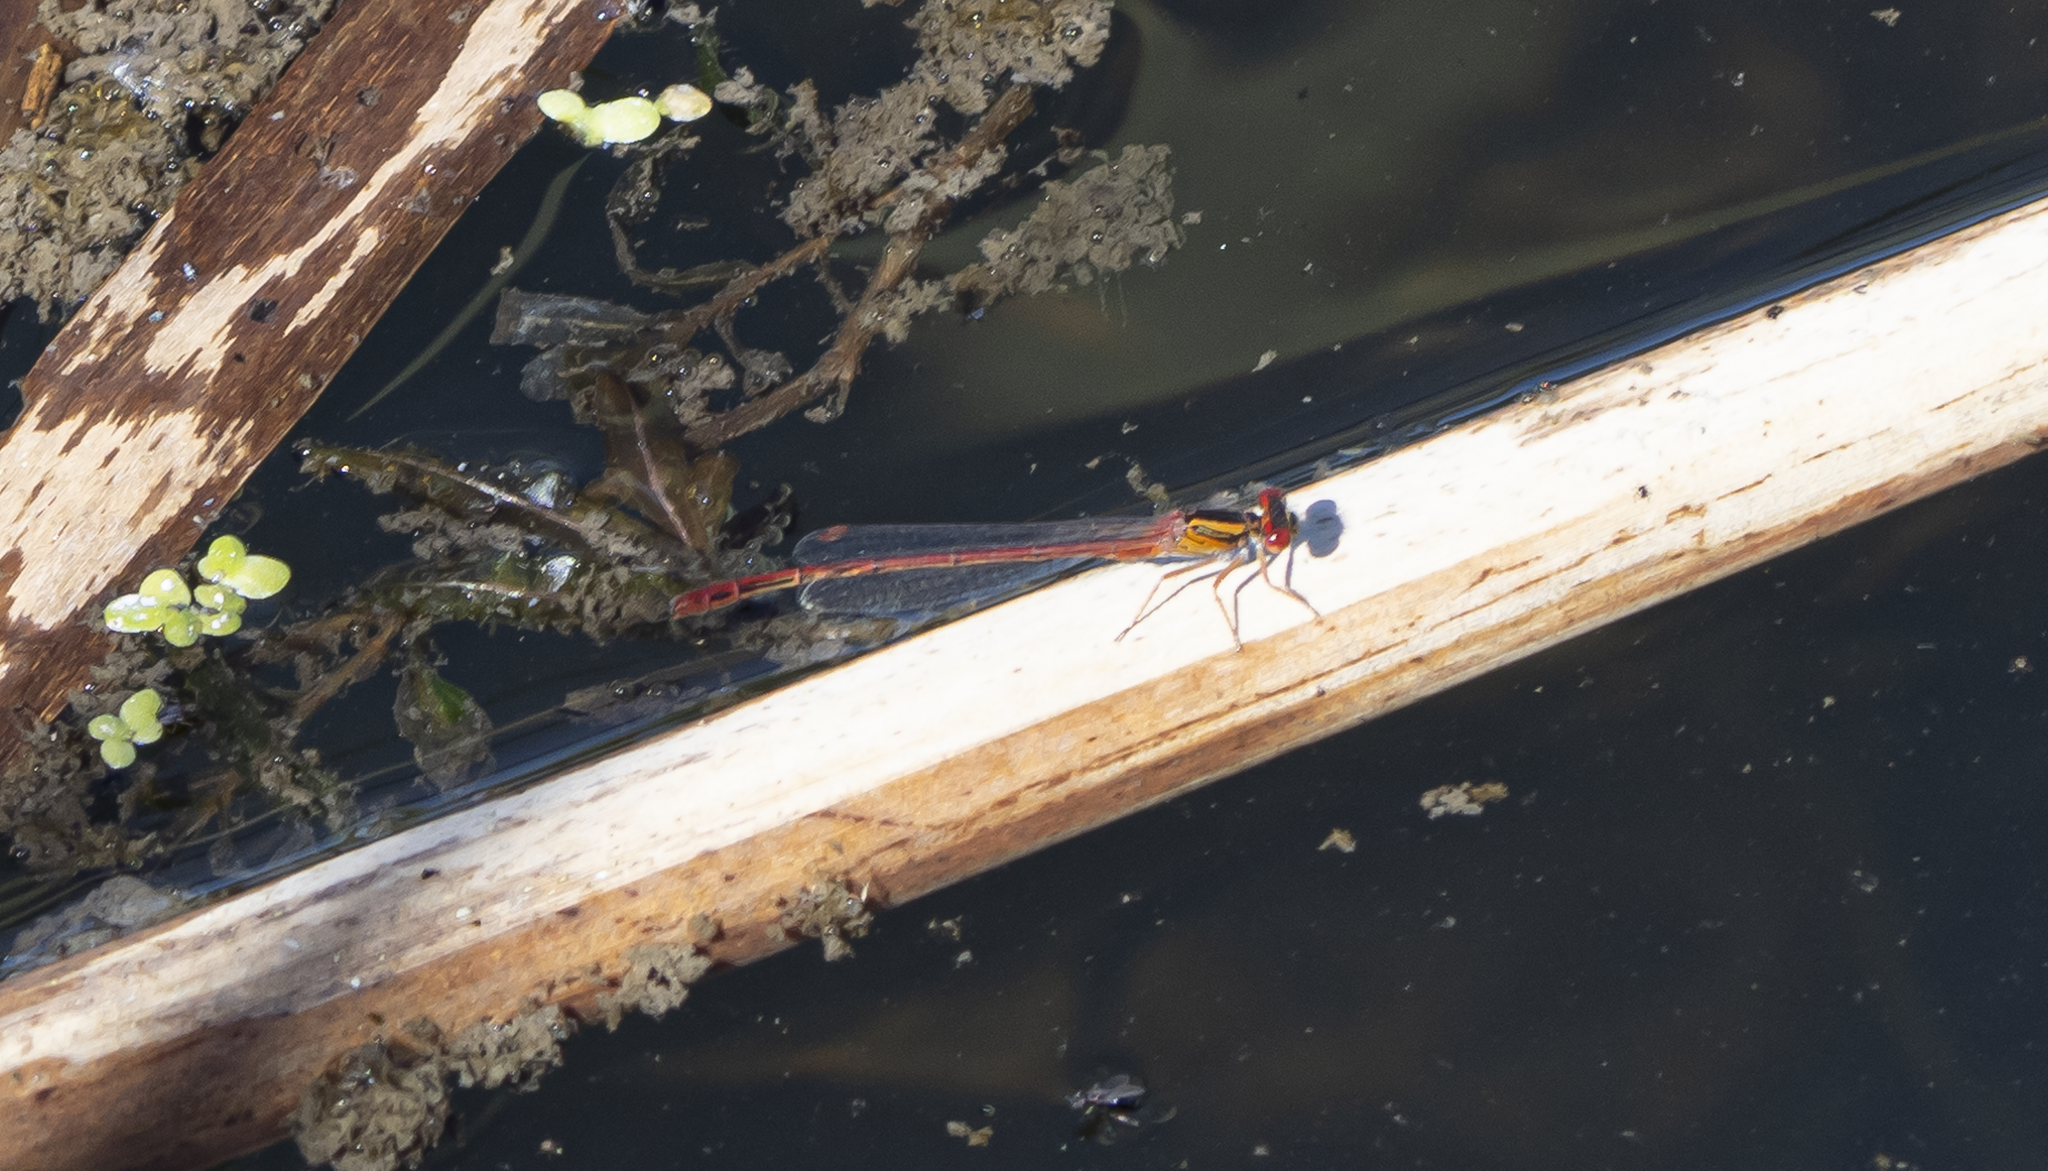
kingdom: Animalia
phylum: Arthropoda
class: Insecta
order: Odonata
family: Coenagrionidae
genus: Xanthocnemis
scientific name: Xanthocnemis zealandica
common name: Common redcoat damselfly
